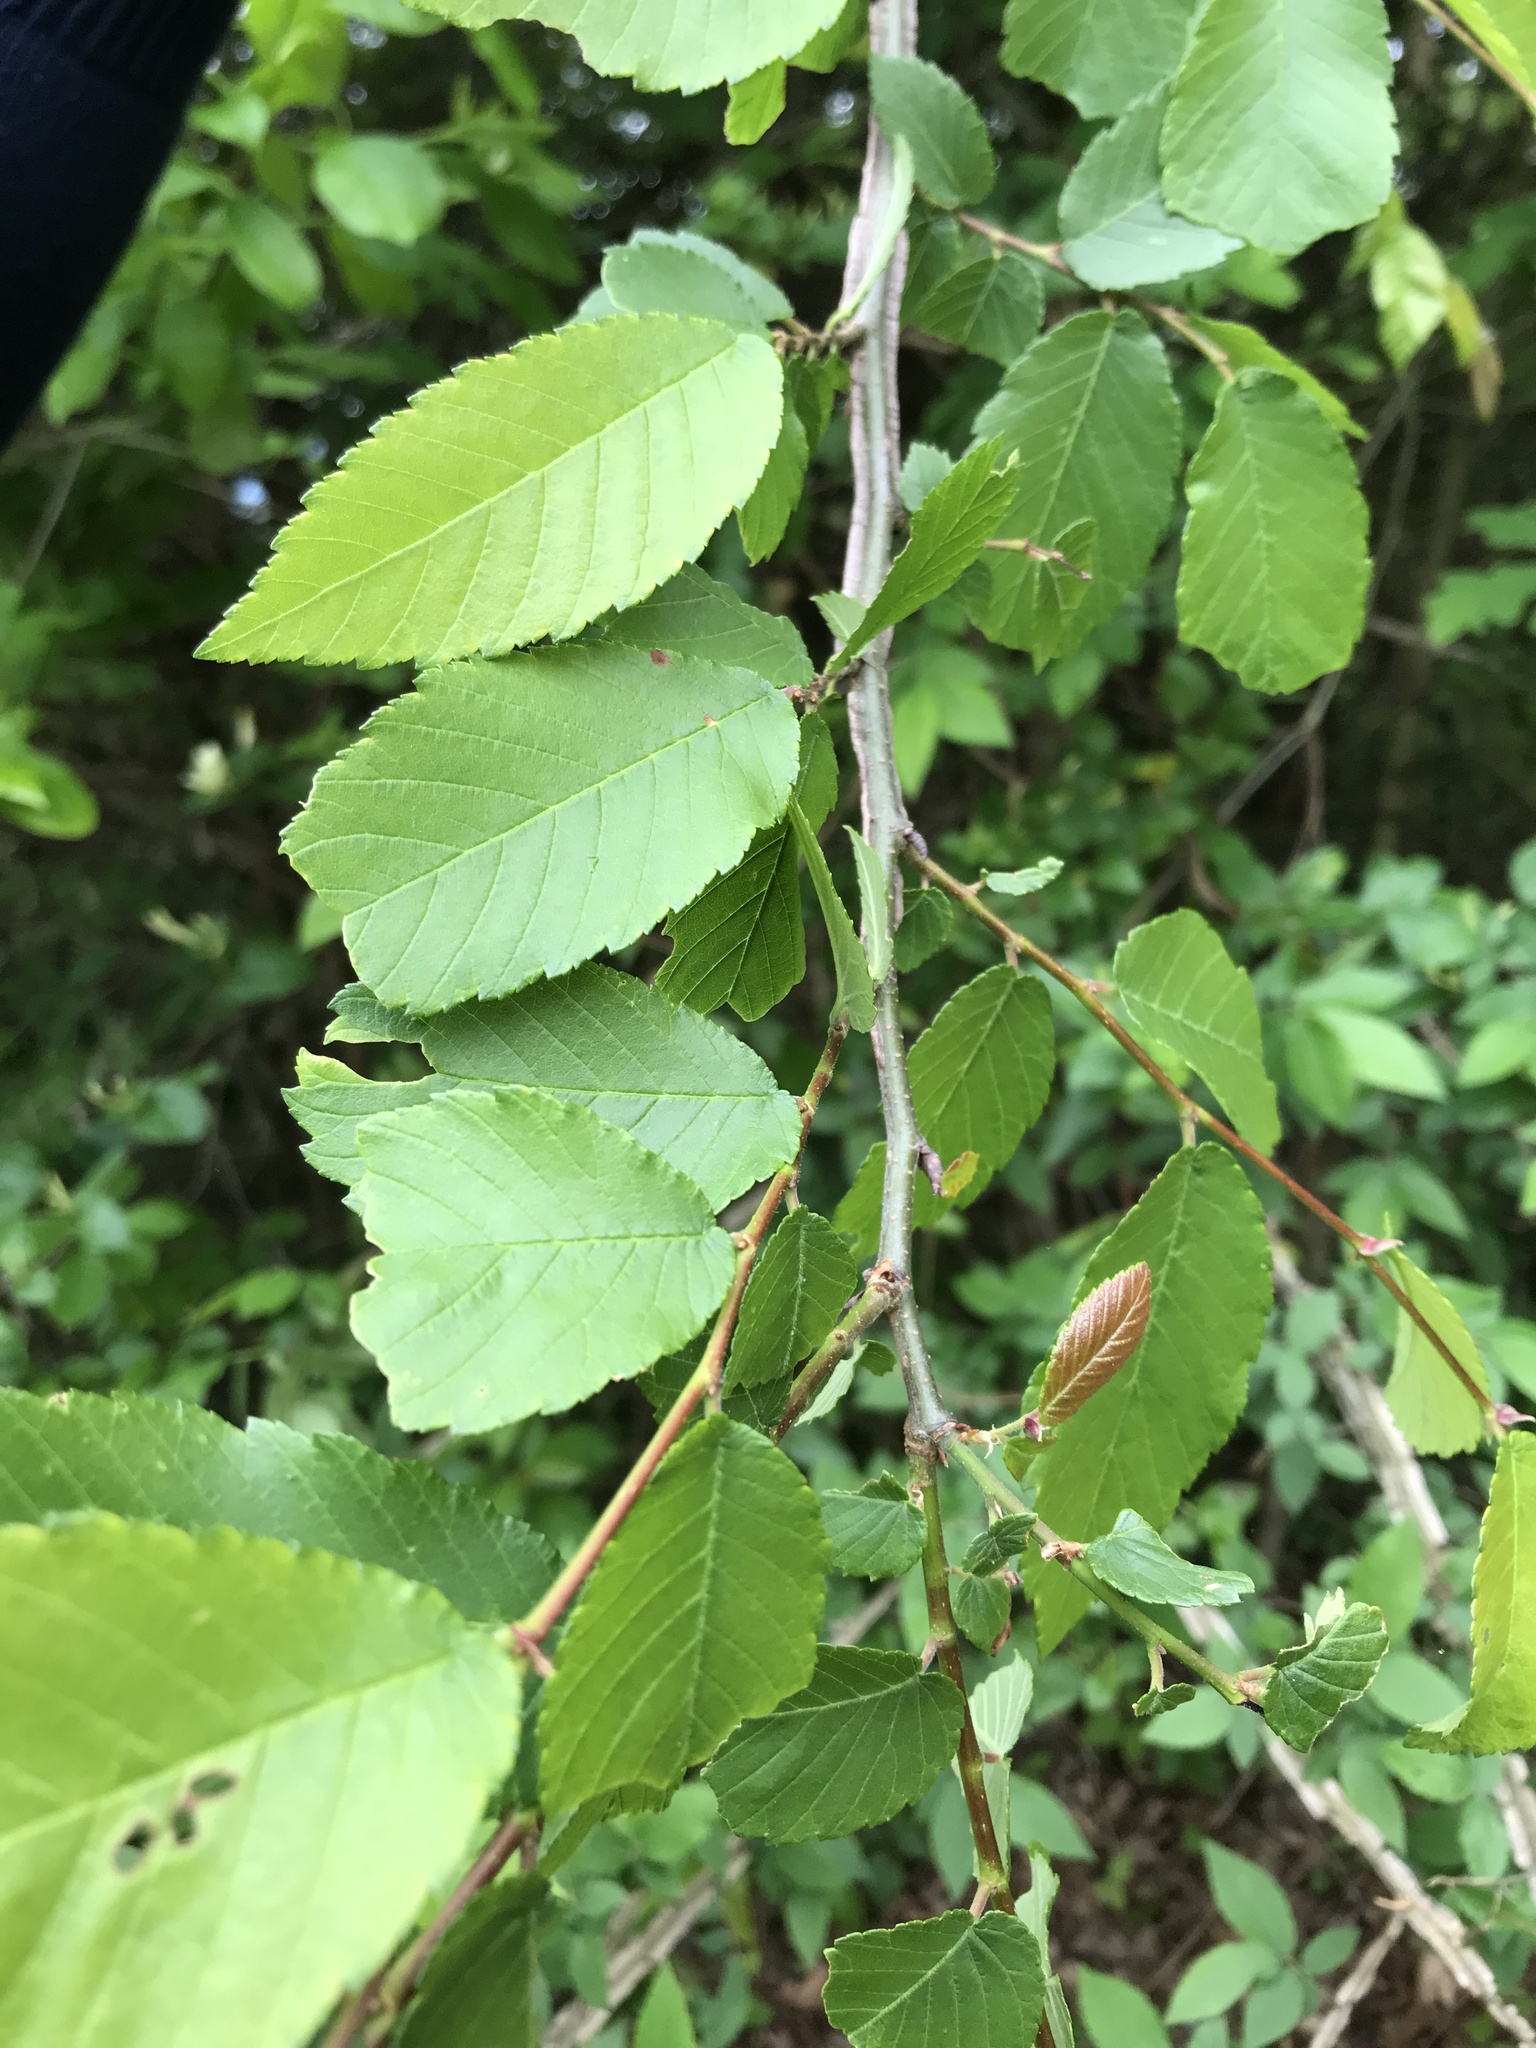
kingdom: Plantae
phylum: Tracheophyta
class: Magnoliopsida
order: Rosales
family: Ulmaceae
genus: Ulmus
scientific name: Ulmus alata
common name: Winged elm
